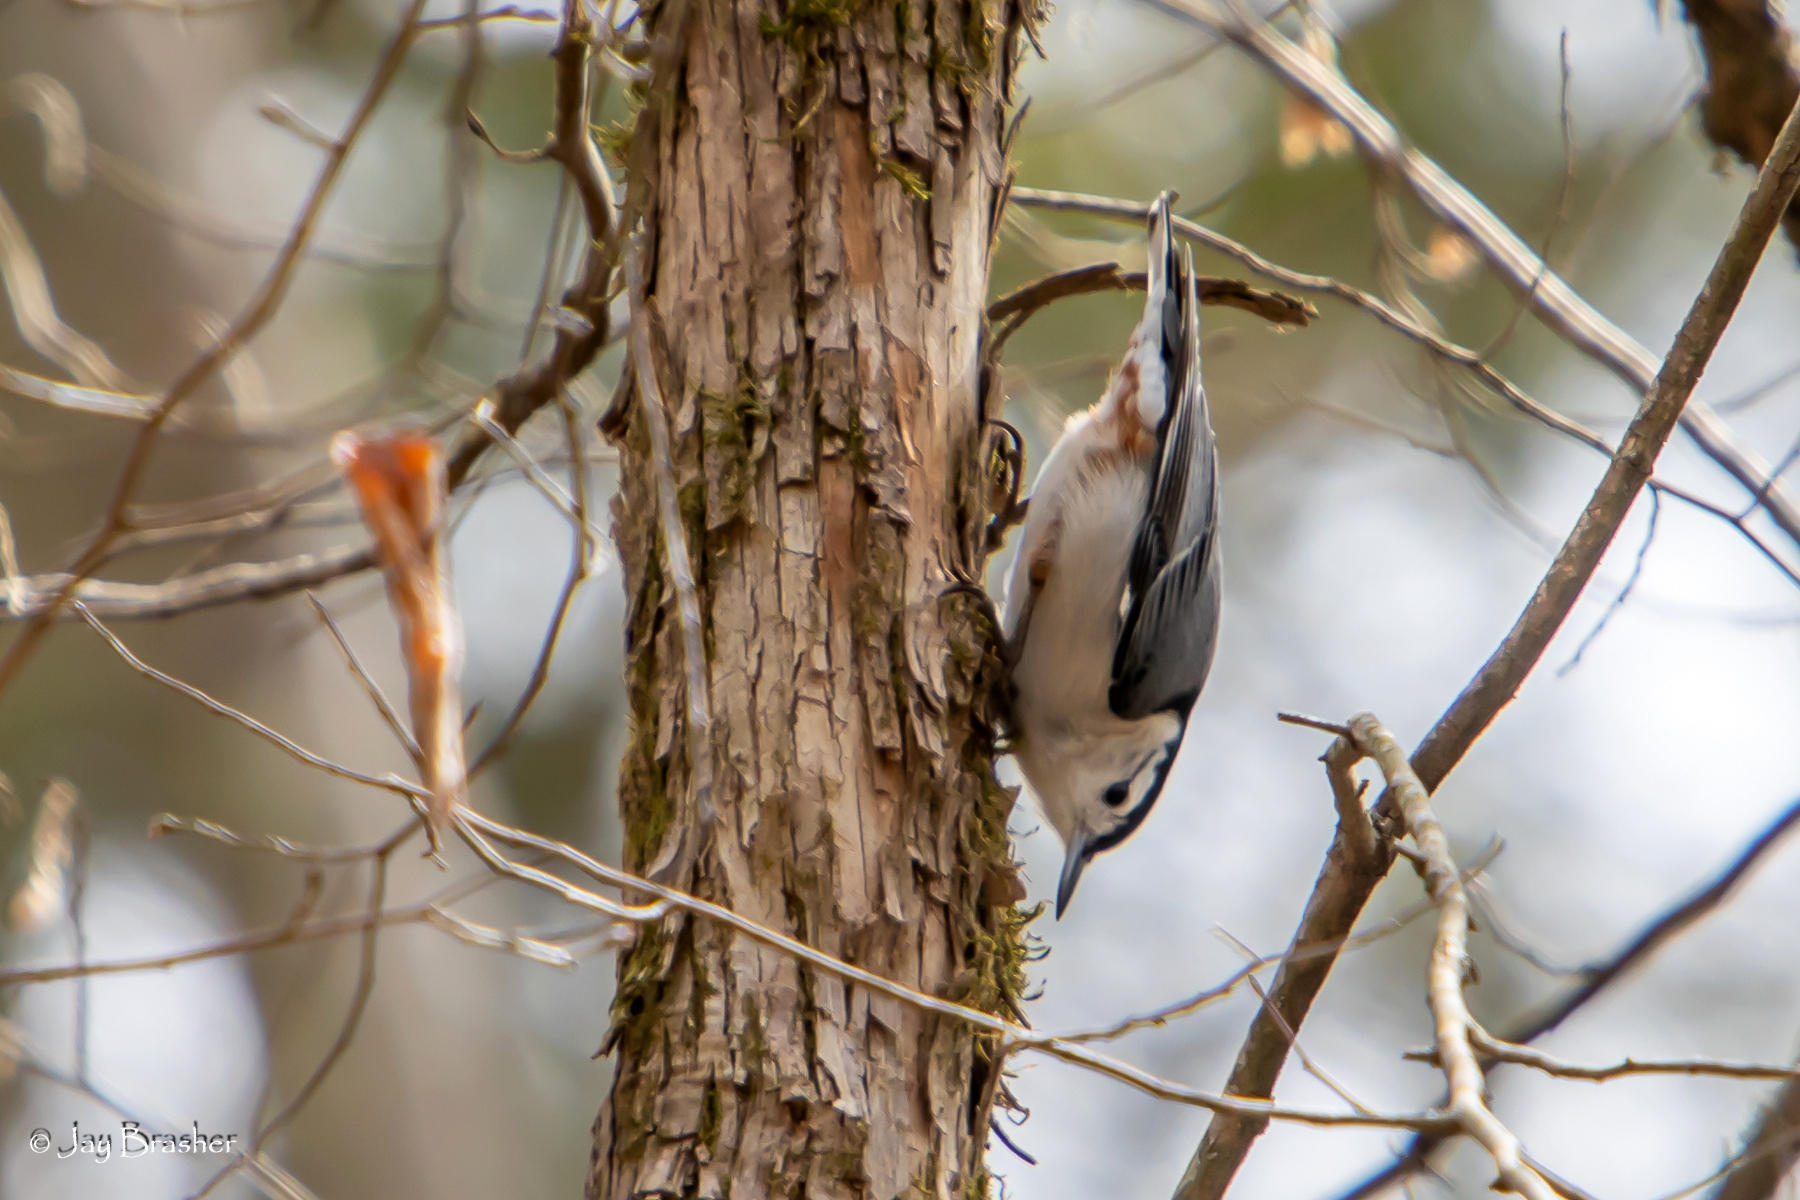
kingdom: Animalia
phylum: Chordata
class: Aves
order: Passeriformes
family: Sittidae
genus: Sitta
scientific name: Sitta carolinensis
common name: White-breasted nuthatch
